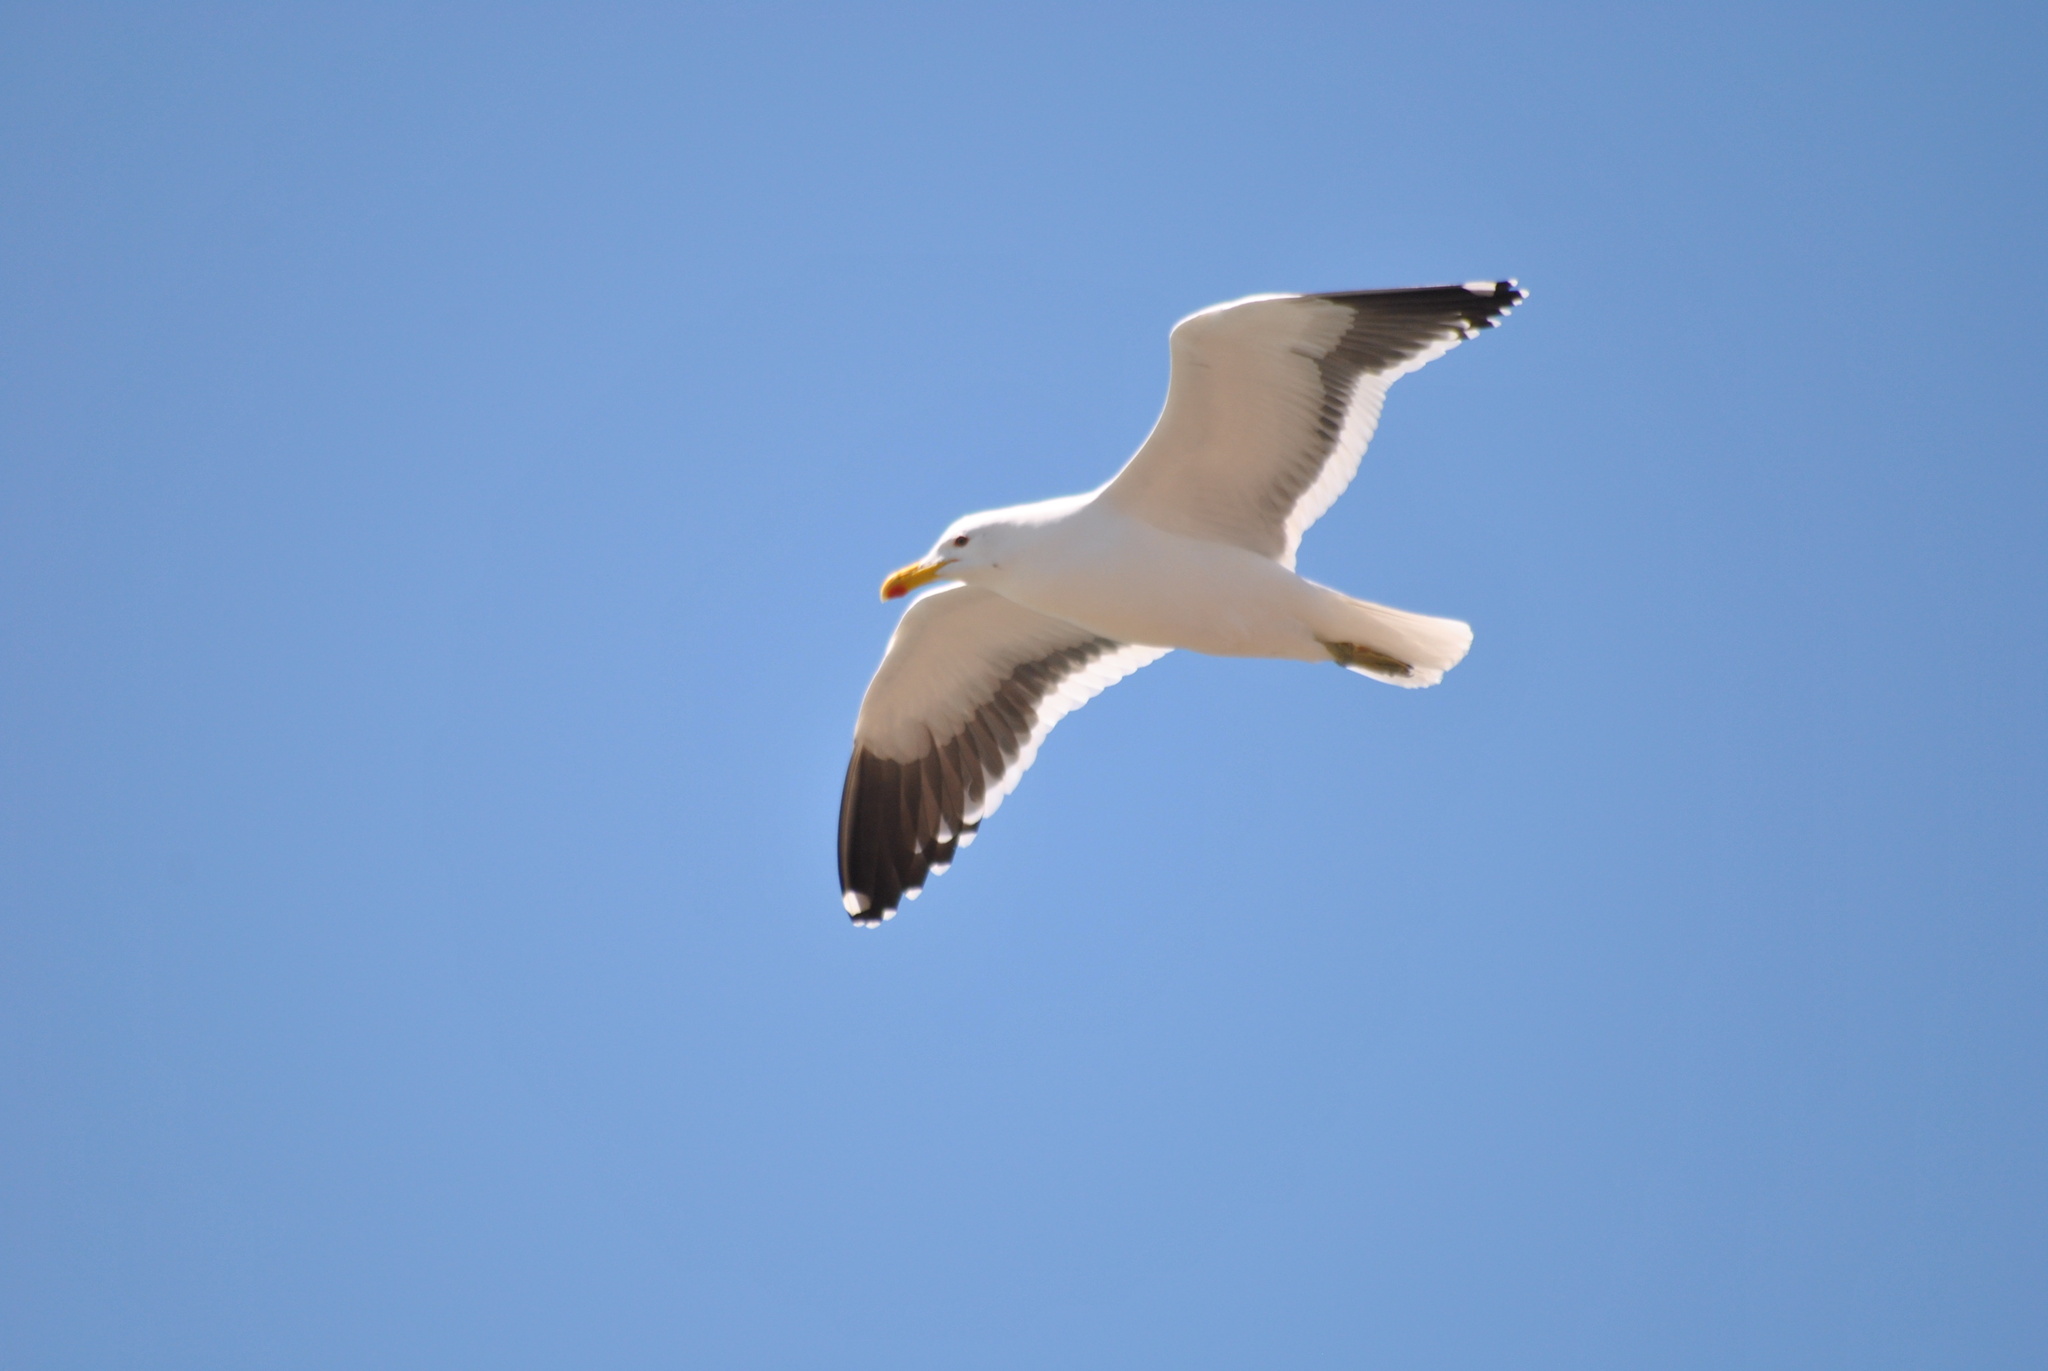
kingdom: Animalia
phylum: Chordata
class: Aves
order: Charadriiformes
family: Laridae
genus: Larus
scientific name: Larus dominicanus
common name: Kelp gull
